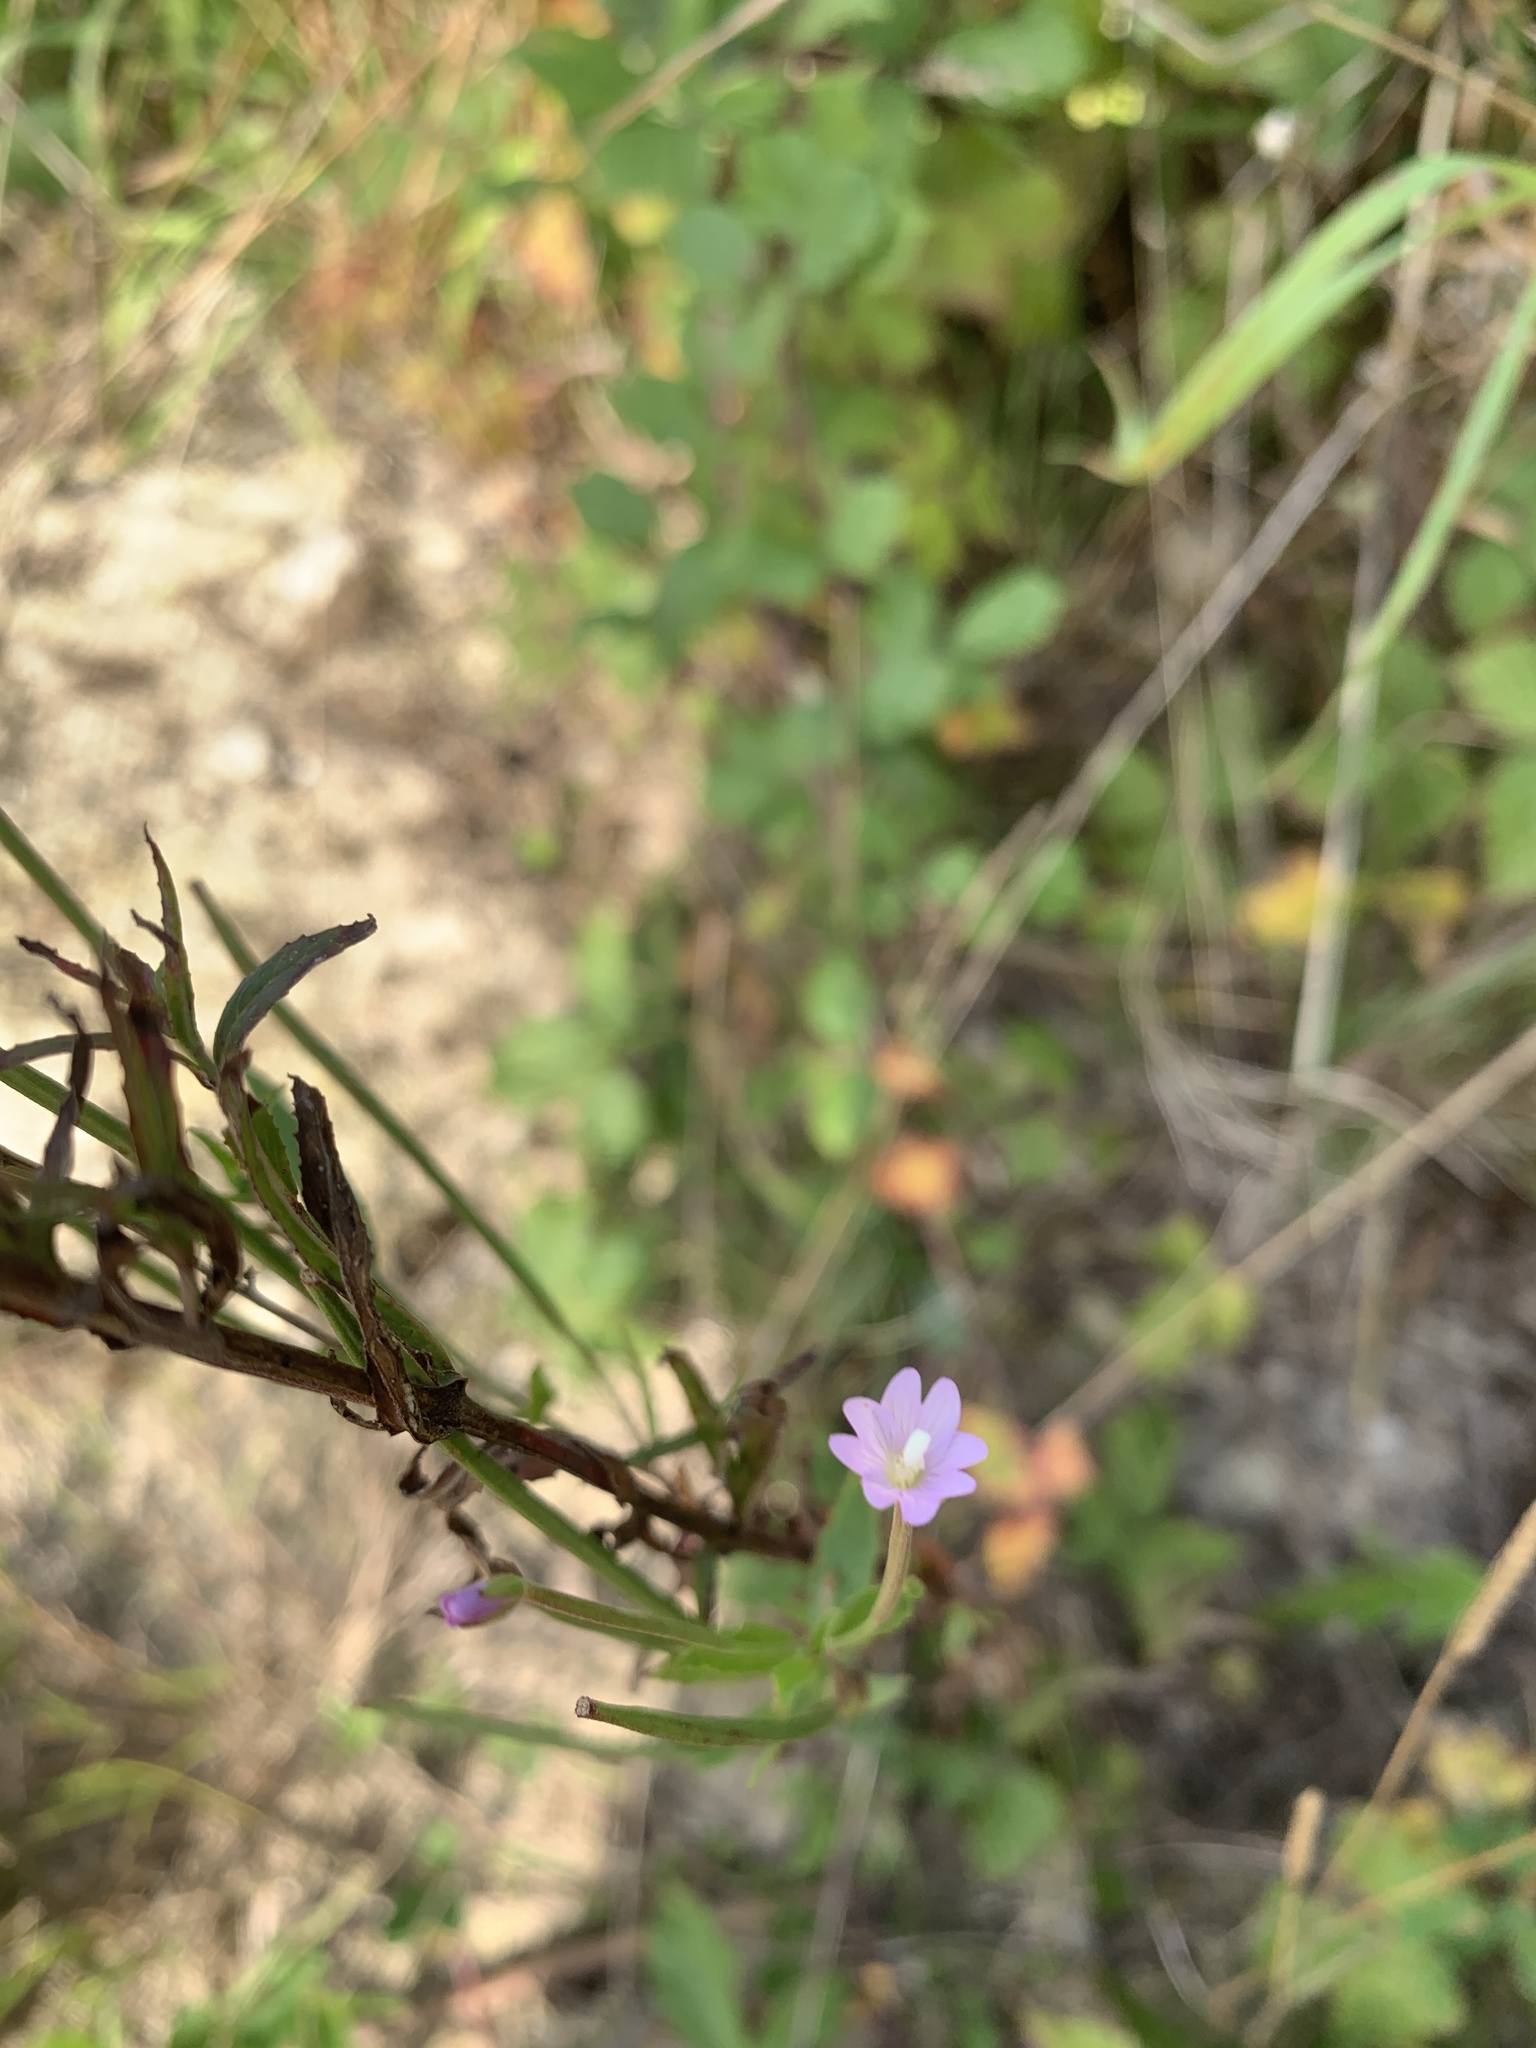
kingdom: Plantae
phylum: Tracheophyta
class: Magnoliopsida
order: Myrtales
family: Onagraceae
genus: Epilobium
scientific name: Epilobium parviflorum
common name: Hoary willowherb
